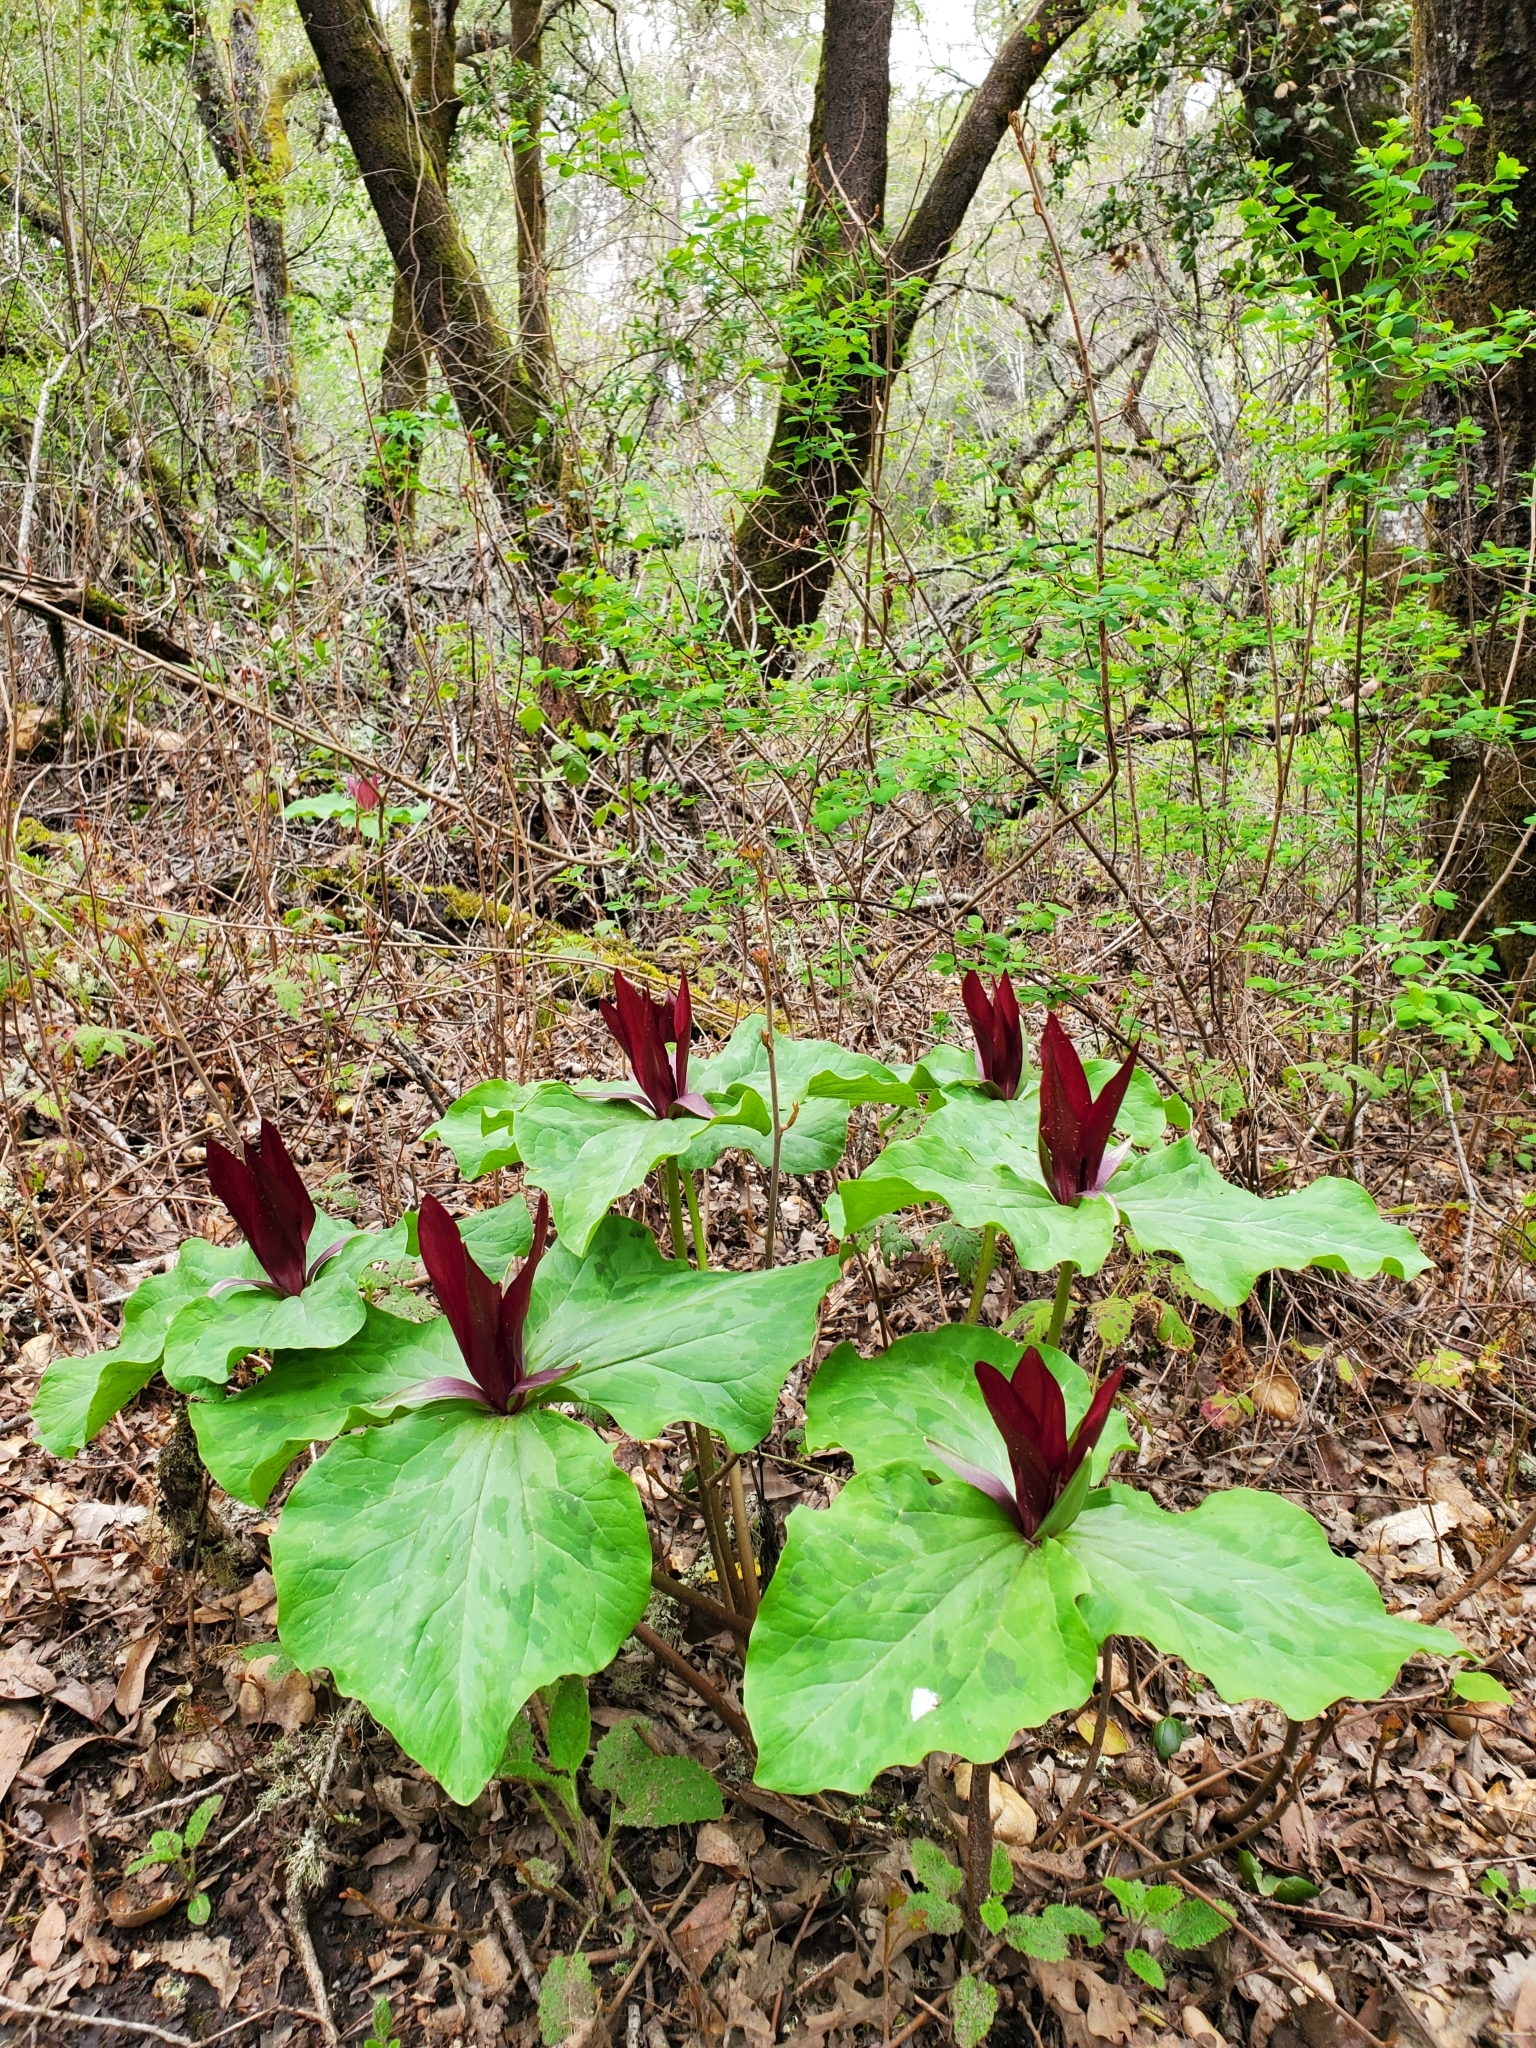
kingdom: Plantae
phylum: Tracheophyta
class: Liliopsida
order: Liliales
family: Melanthiaceae
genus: Trillium
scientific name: Trillium chloropetalum
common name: Giant trillium
